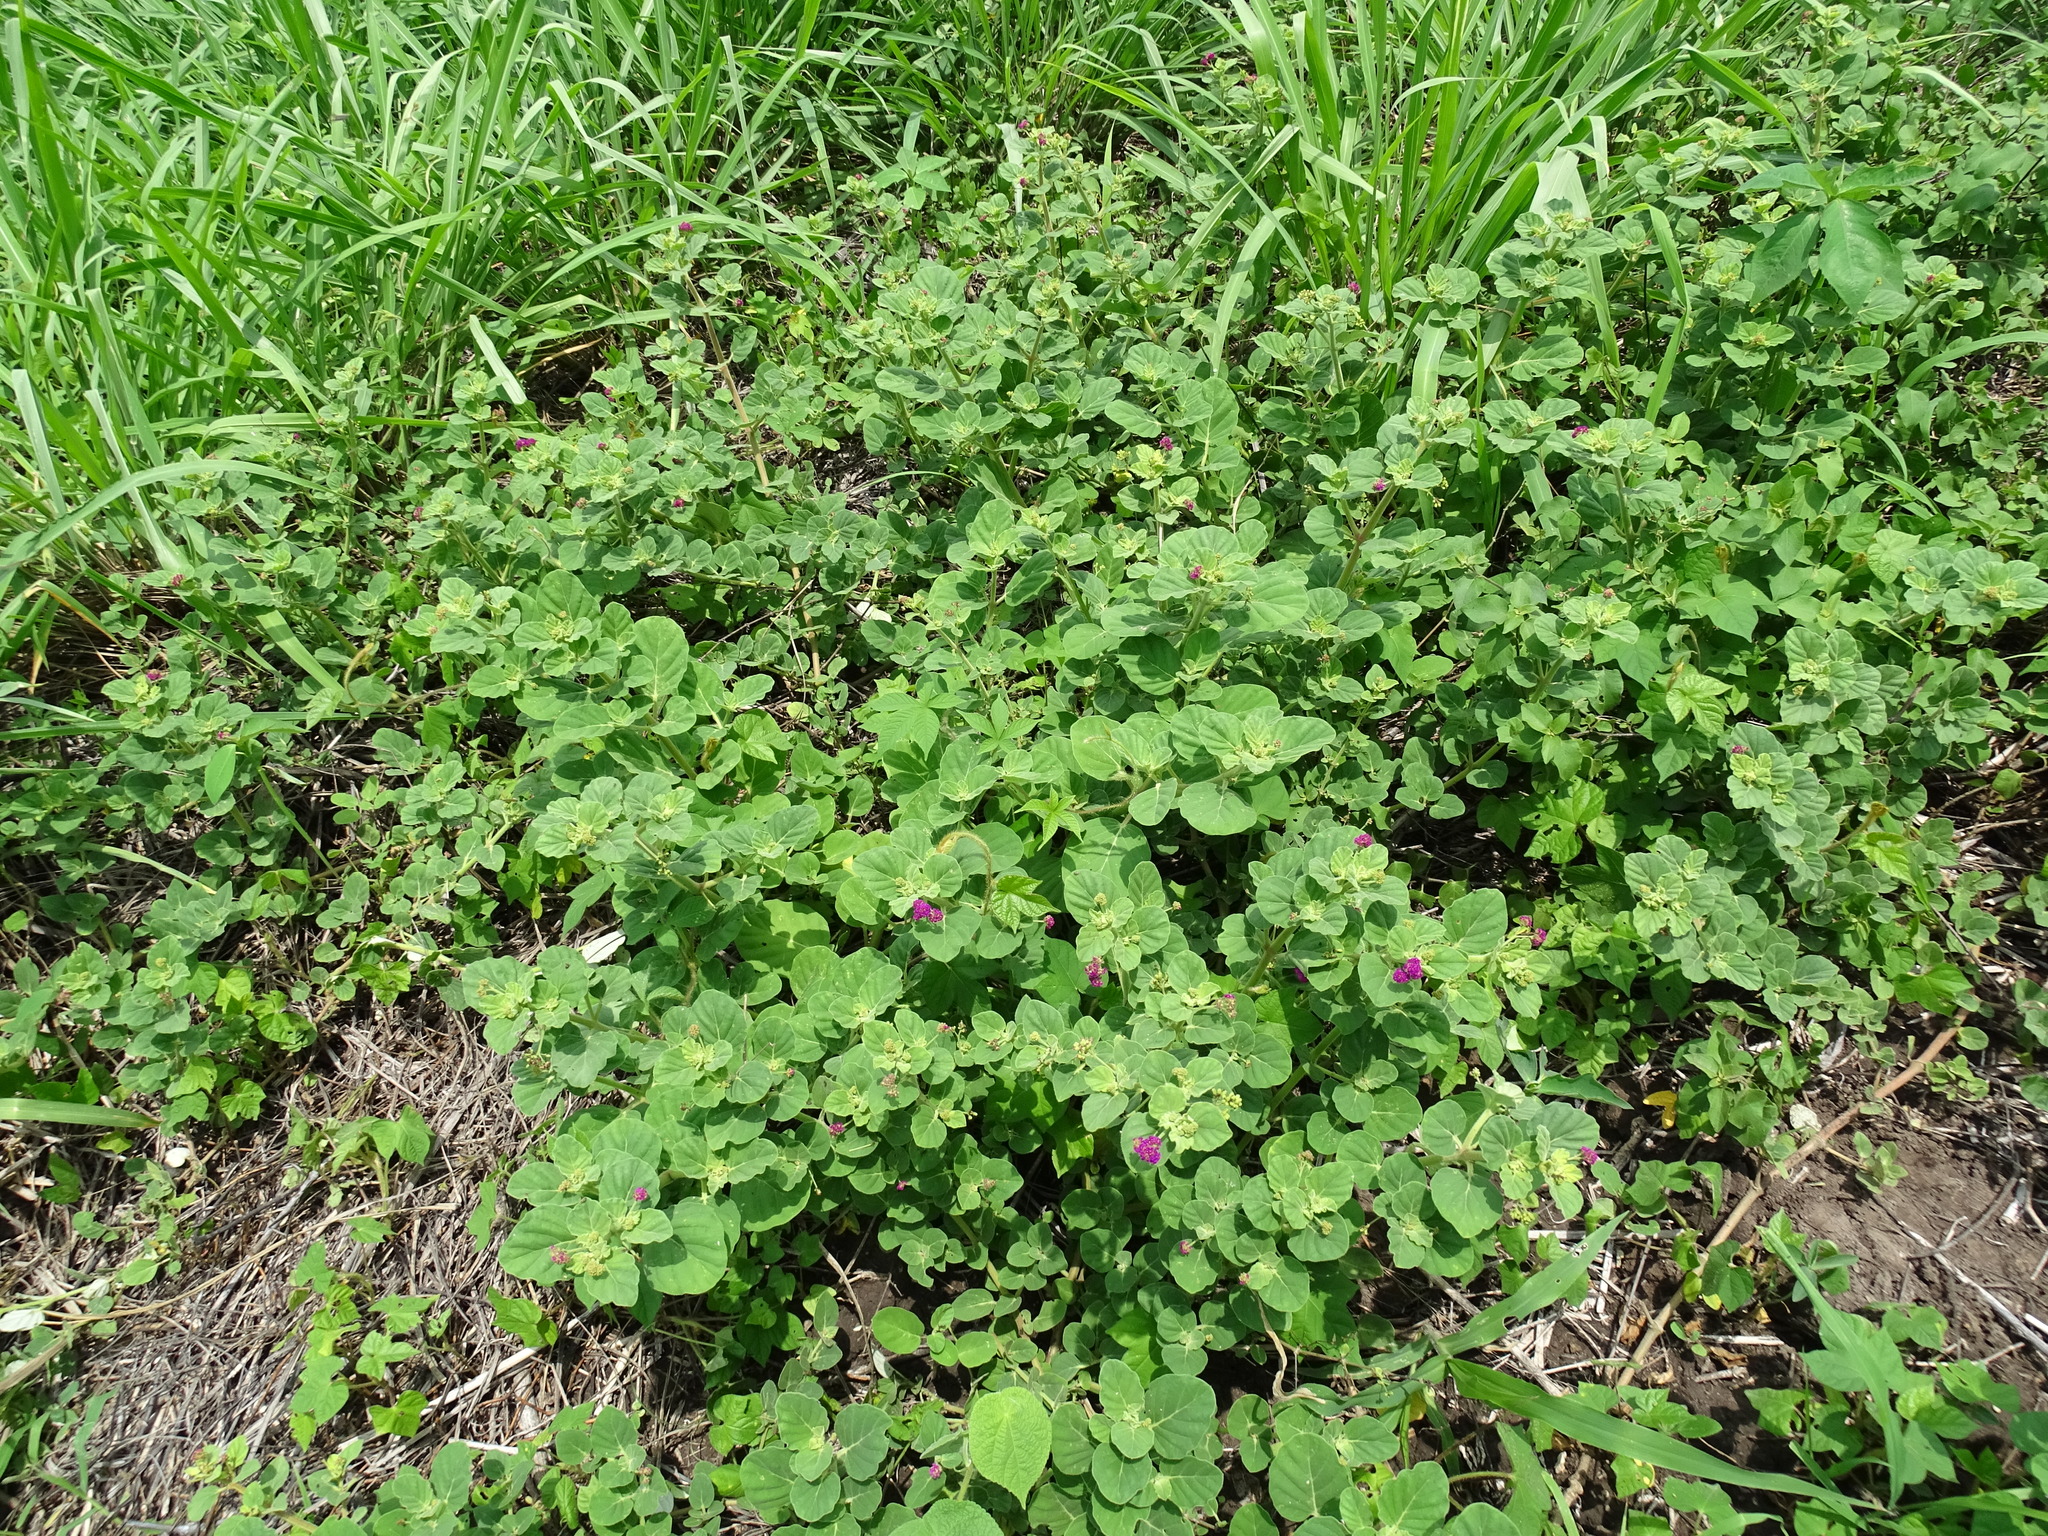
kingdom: Plantae
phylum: Tracheophyta
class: Magnoliopsida
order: Caryophyllales
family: Nyctaginaceae
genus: Boerhavia
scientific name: Boerhavia coccinea
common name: Scarlet spiderling
